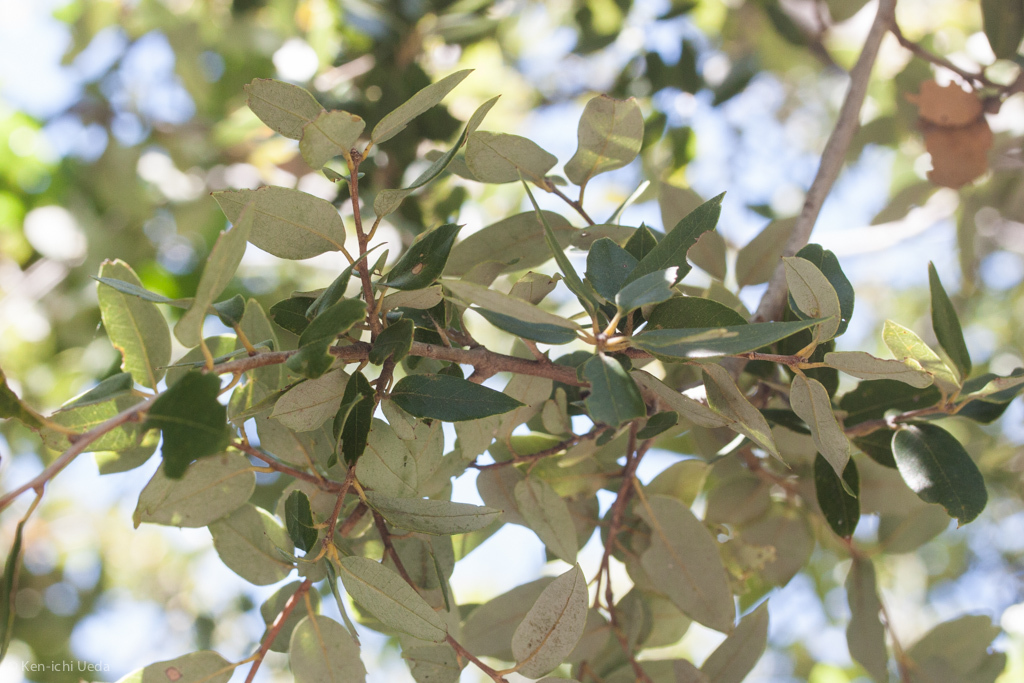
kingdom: Plantae
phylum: Tracheophyta
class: Magnoliopsida
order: Fagales
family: Fagaceae
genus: Quercus
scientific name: Quercus chrysolepis
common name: Canyon live oak
